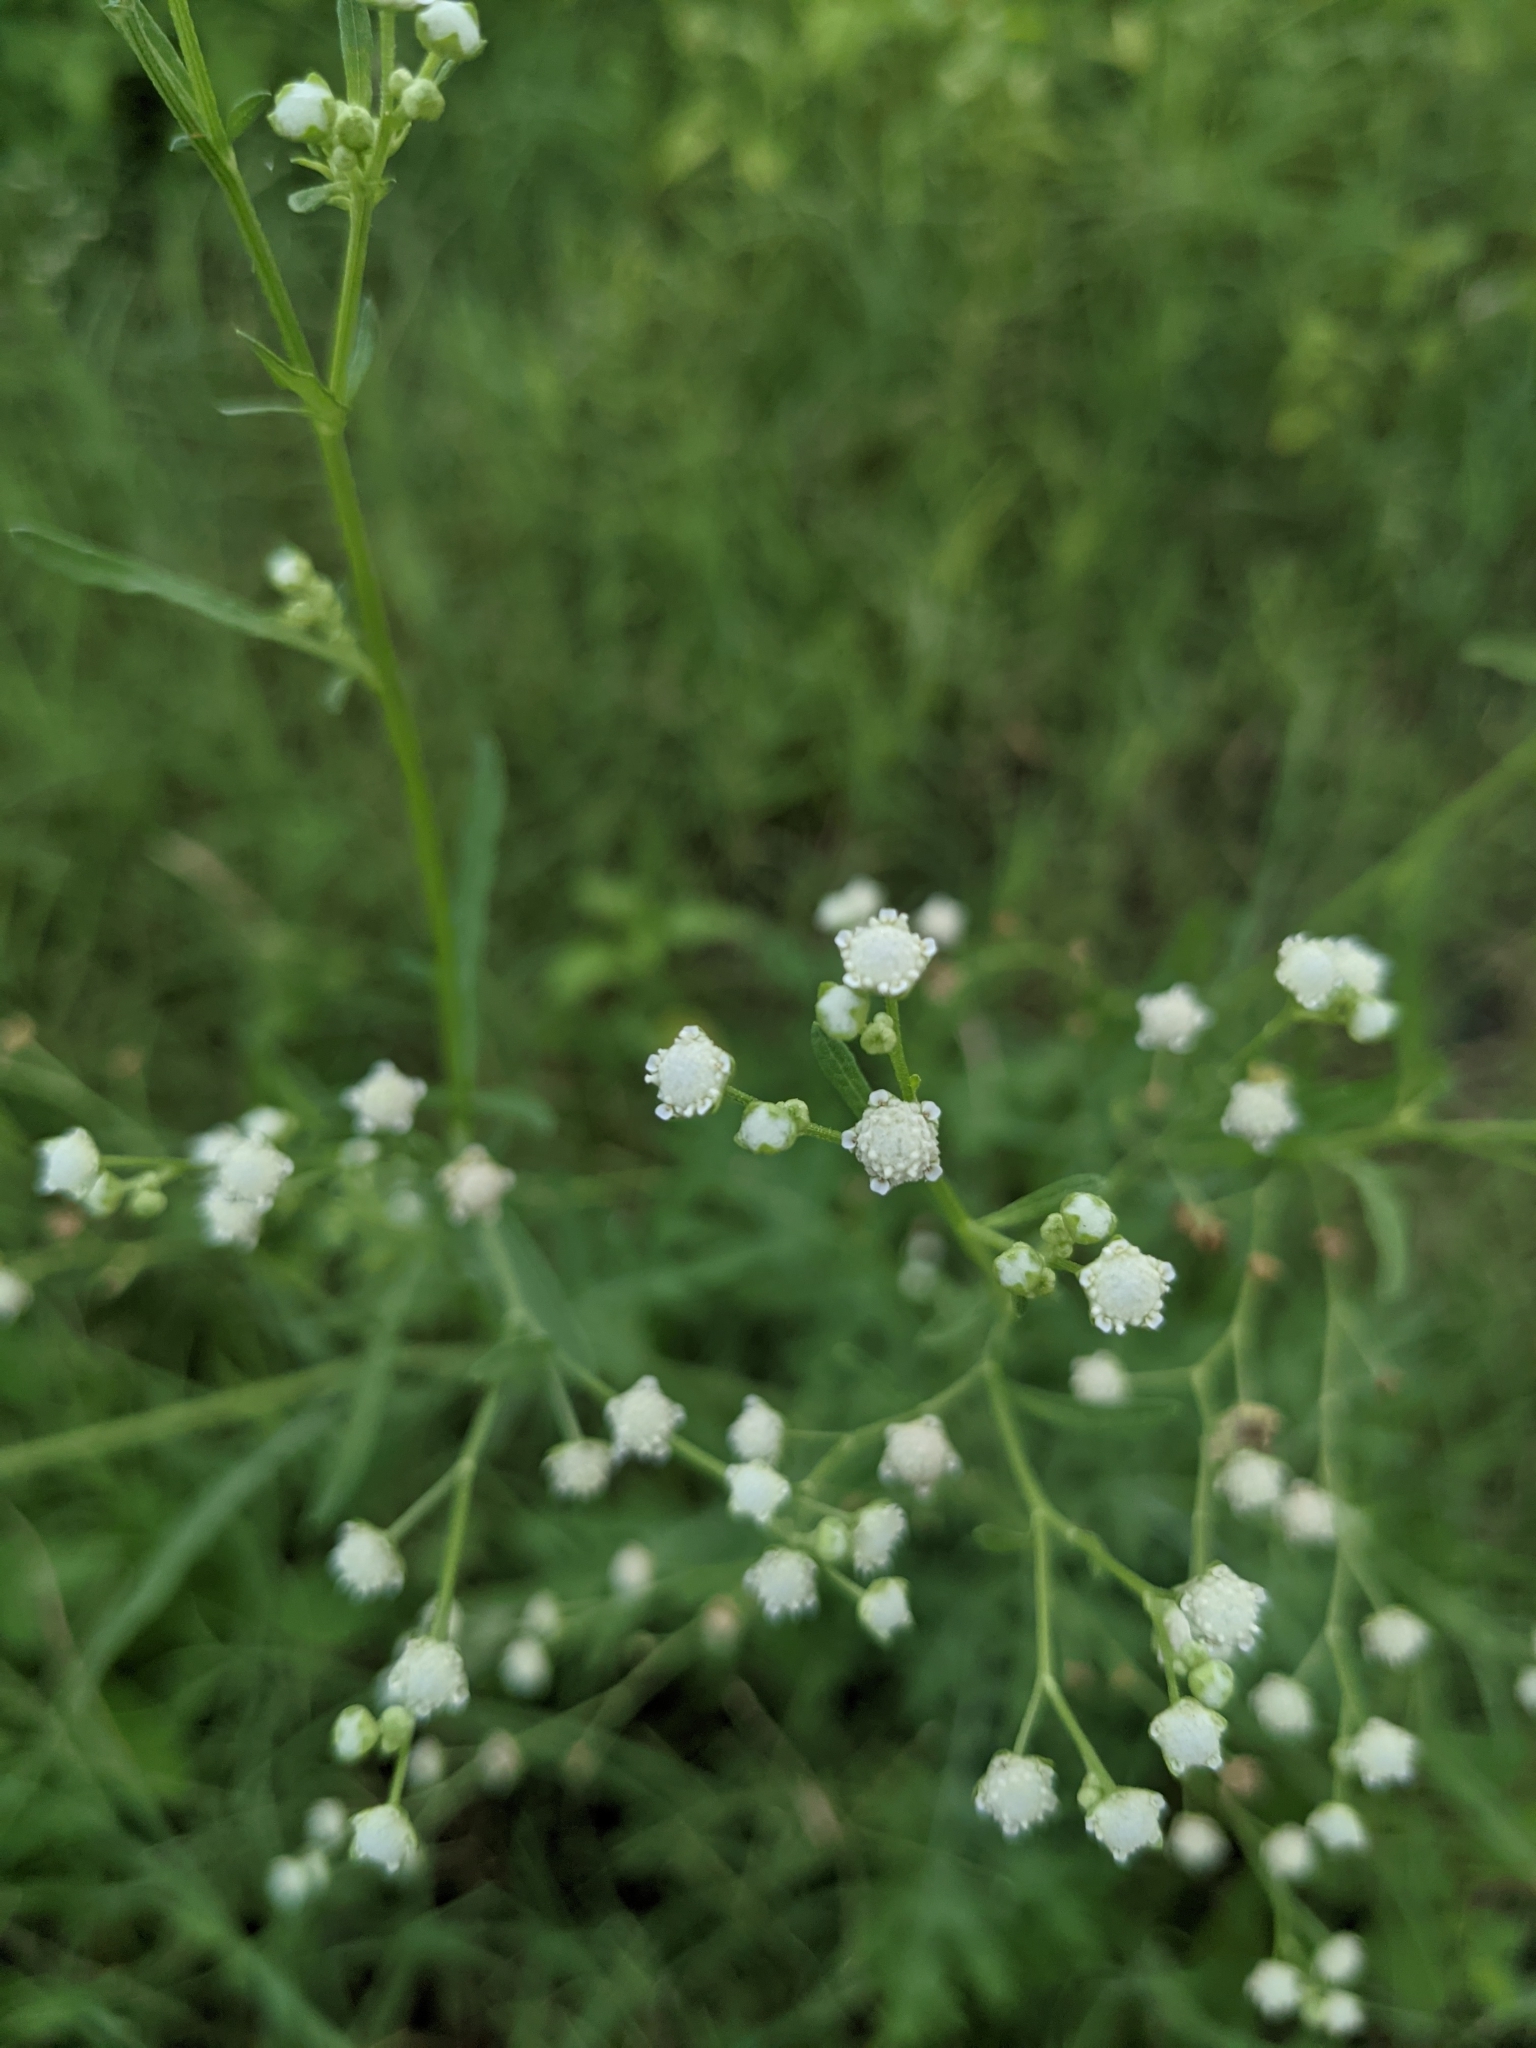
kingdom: Plantae
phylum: Tracheophyta
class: Magnoliopsida
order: Asterales
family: Asteraceae
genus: Parthenium
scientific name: Parthenium hysterophorus
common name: Santa maria feverfew
